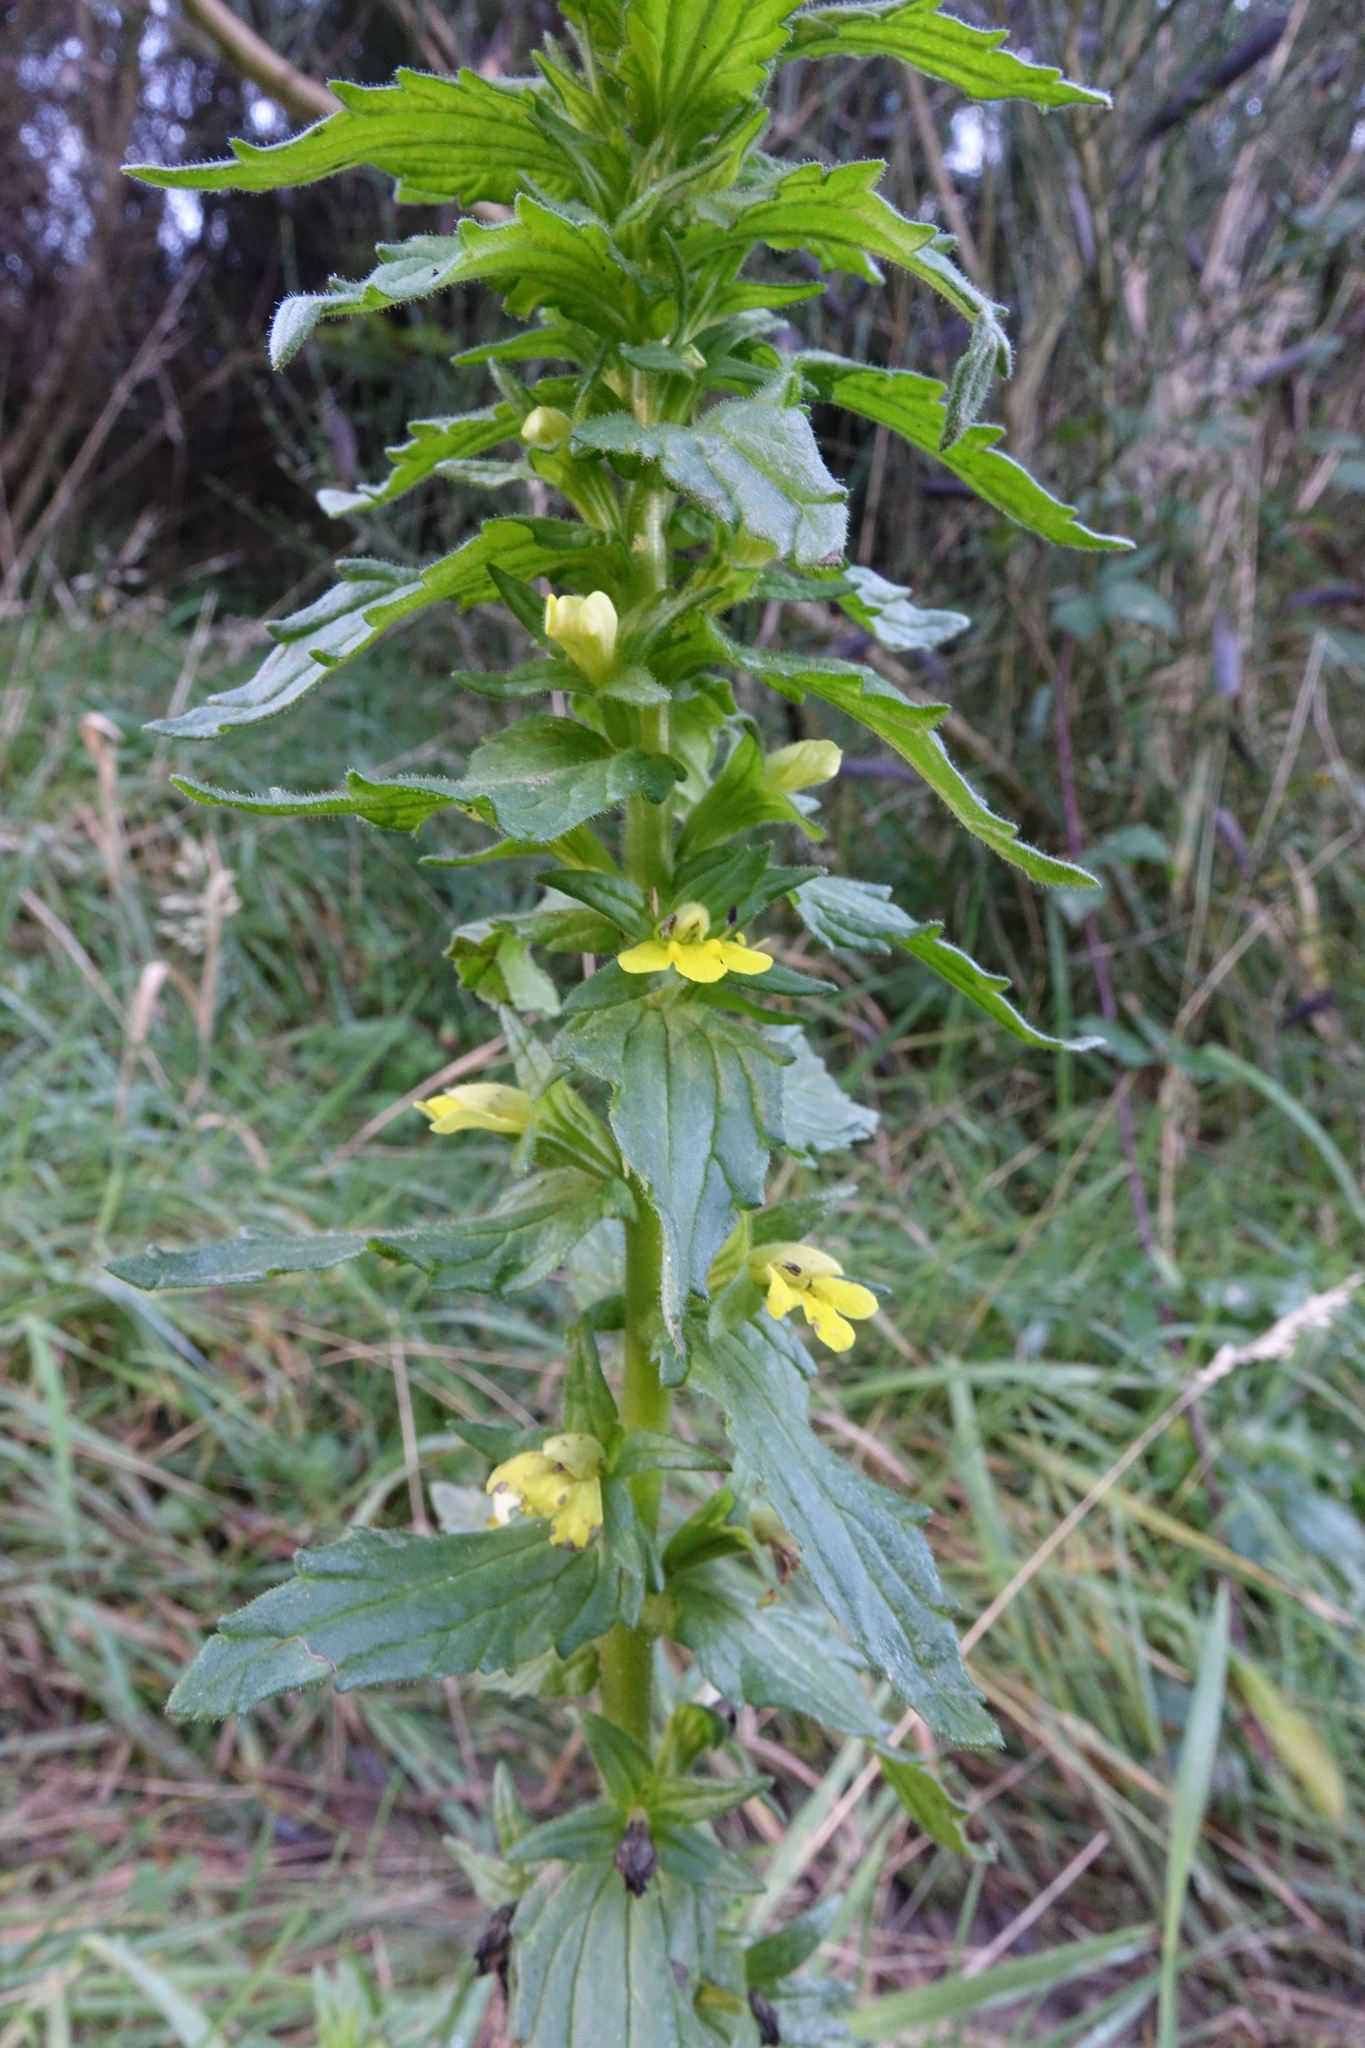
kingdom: Plantae
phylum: Tracheophyta
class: Magnoliopsida
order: Lamiales
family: Orobanchaceae
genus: Bellardia
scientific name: Bellardia viscosa
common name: Sticky parentucellia
